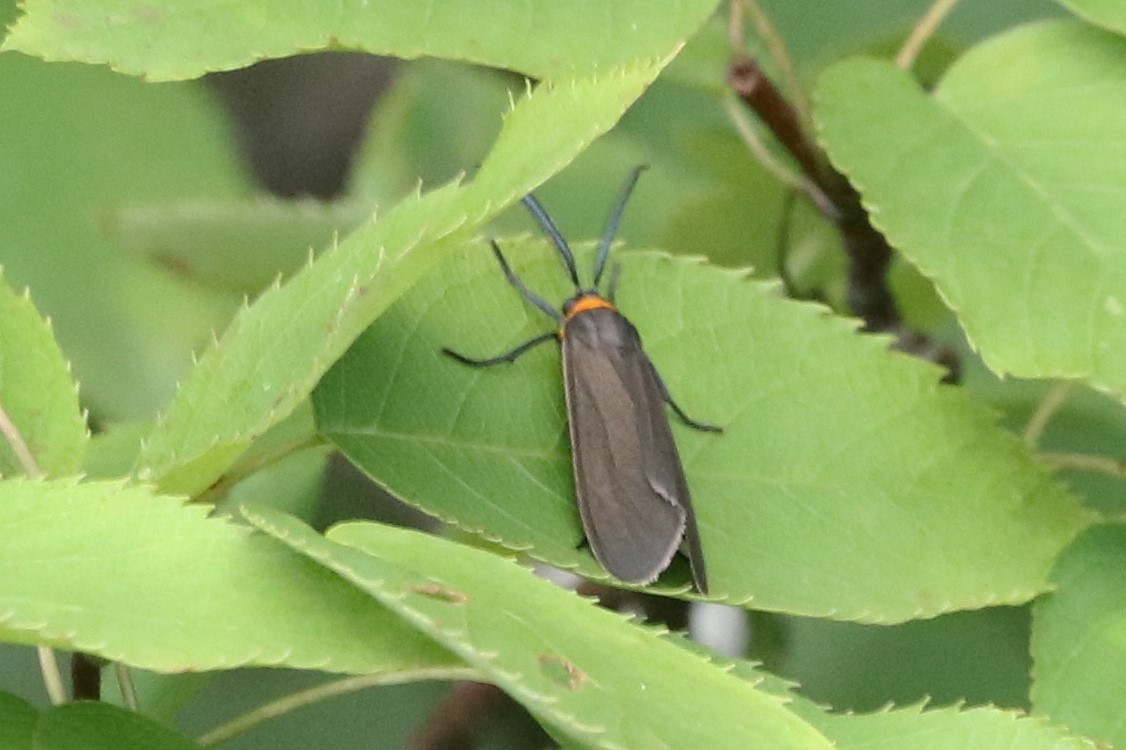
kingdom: Animalia
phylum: Arthropoda
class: Insecta
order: Lepidoptera
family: Erebidae
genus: Cisseps
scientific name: Cisseps fulvicollis
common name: Yellow-collared scape moth
